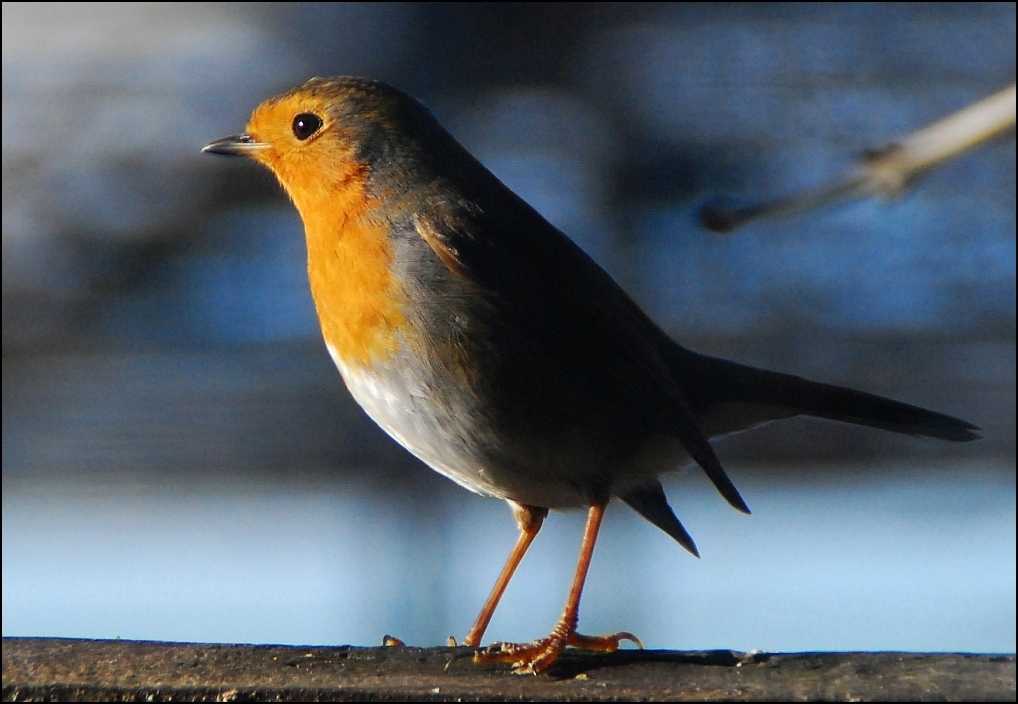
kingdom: Animalia
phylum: Chordata
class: Aves
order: Passeriformes
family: Muscicapidae
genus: Erithacus
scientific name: Erithacus rubecula
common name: European robin
